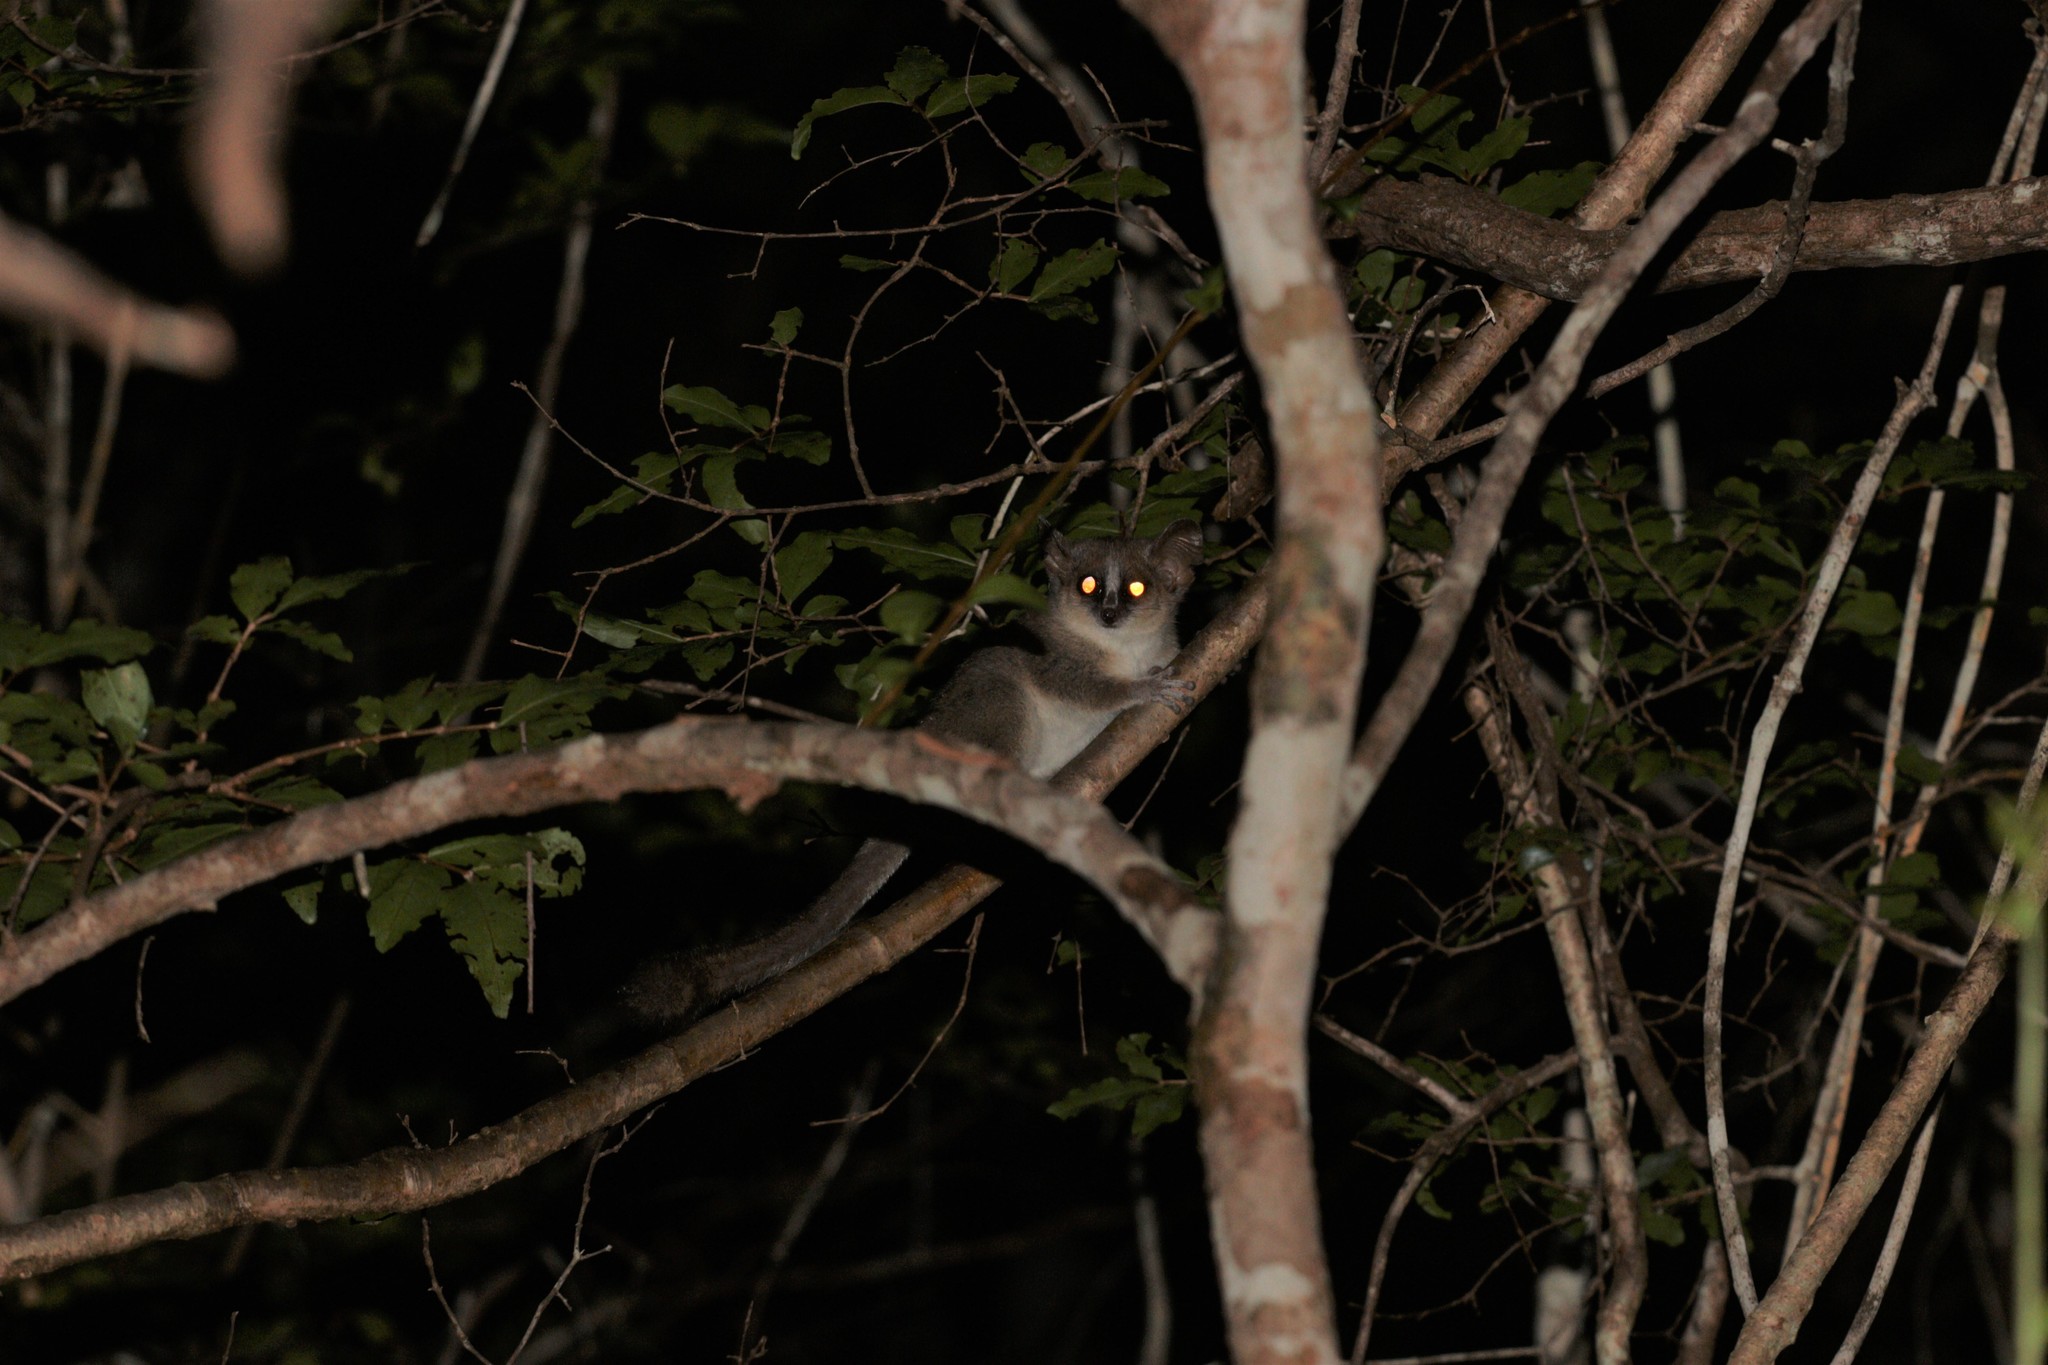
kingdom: Animalia
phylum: Chordata
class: Mammalia
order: Primates
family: Cheirogaleidae
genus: Microcebus
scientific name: Microcebus murinus
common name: Gray mouse lemur
